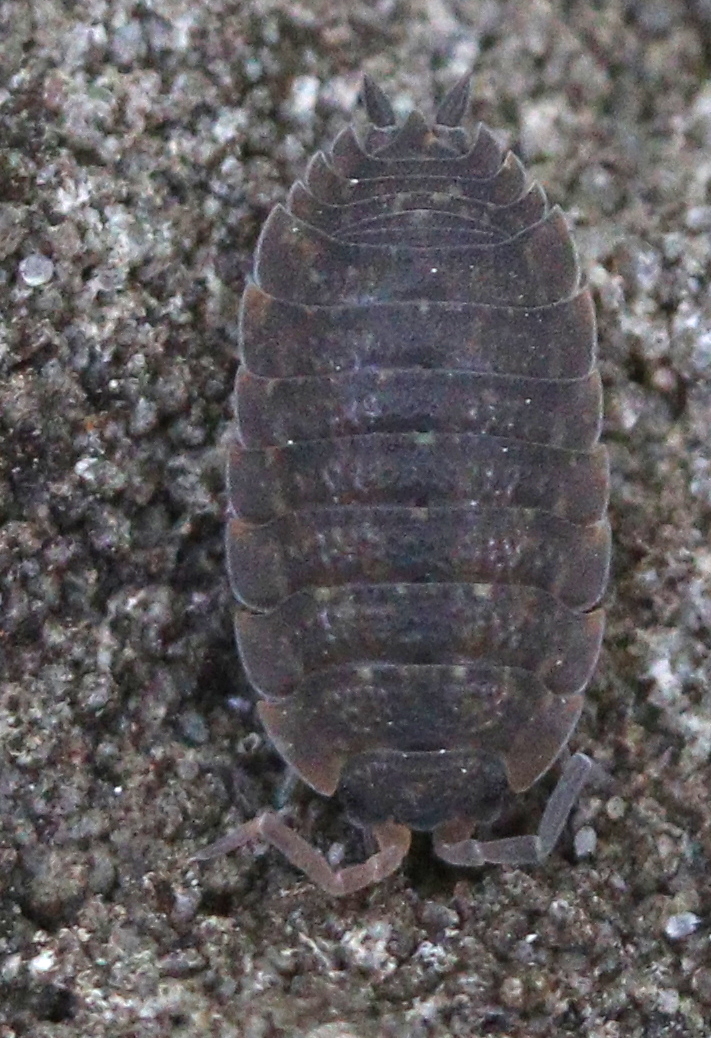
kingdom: Animalia
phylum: Arthropoda
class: Malacostraca
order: Isopoda
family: Porcellionidae
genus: Porcellio
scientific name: Porcellio scaber
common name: Common rough woodlouse
